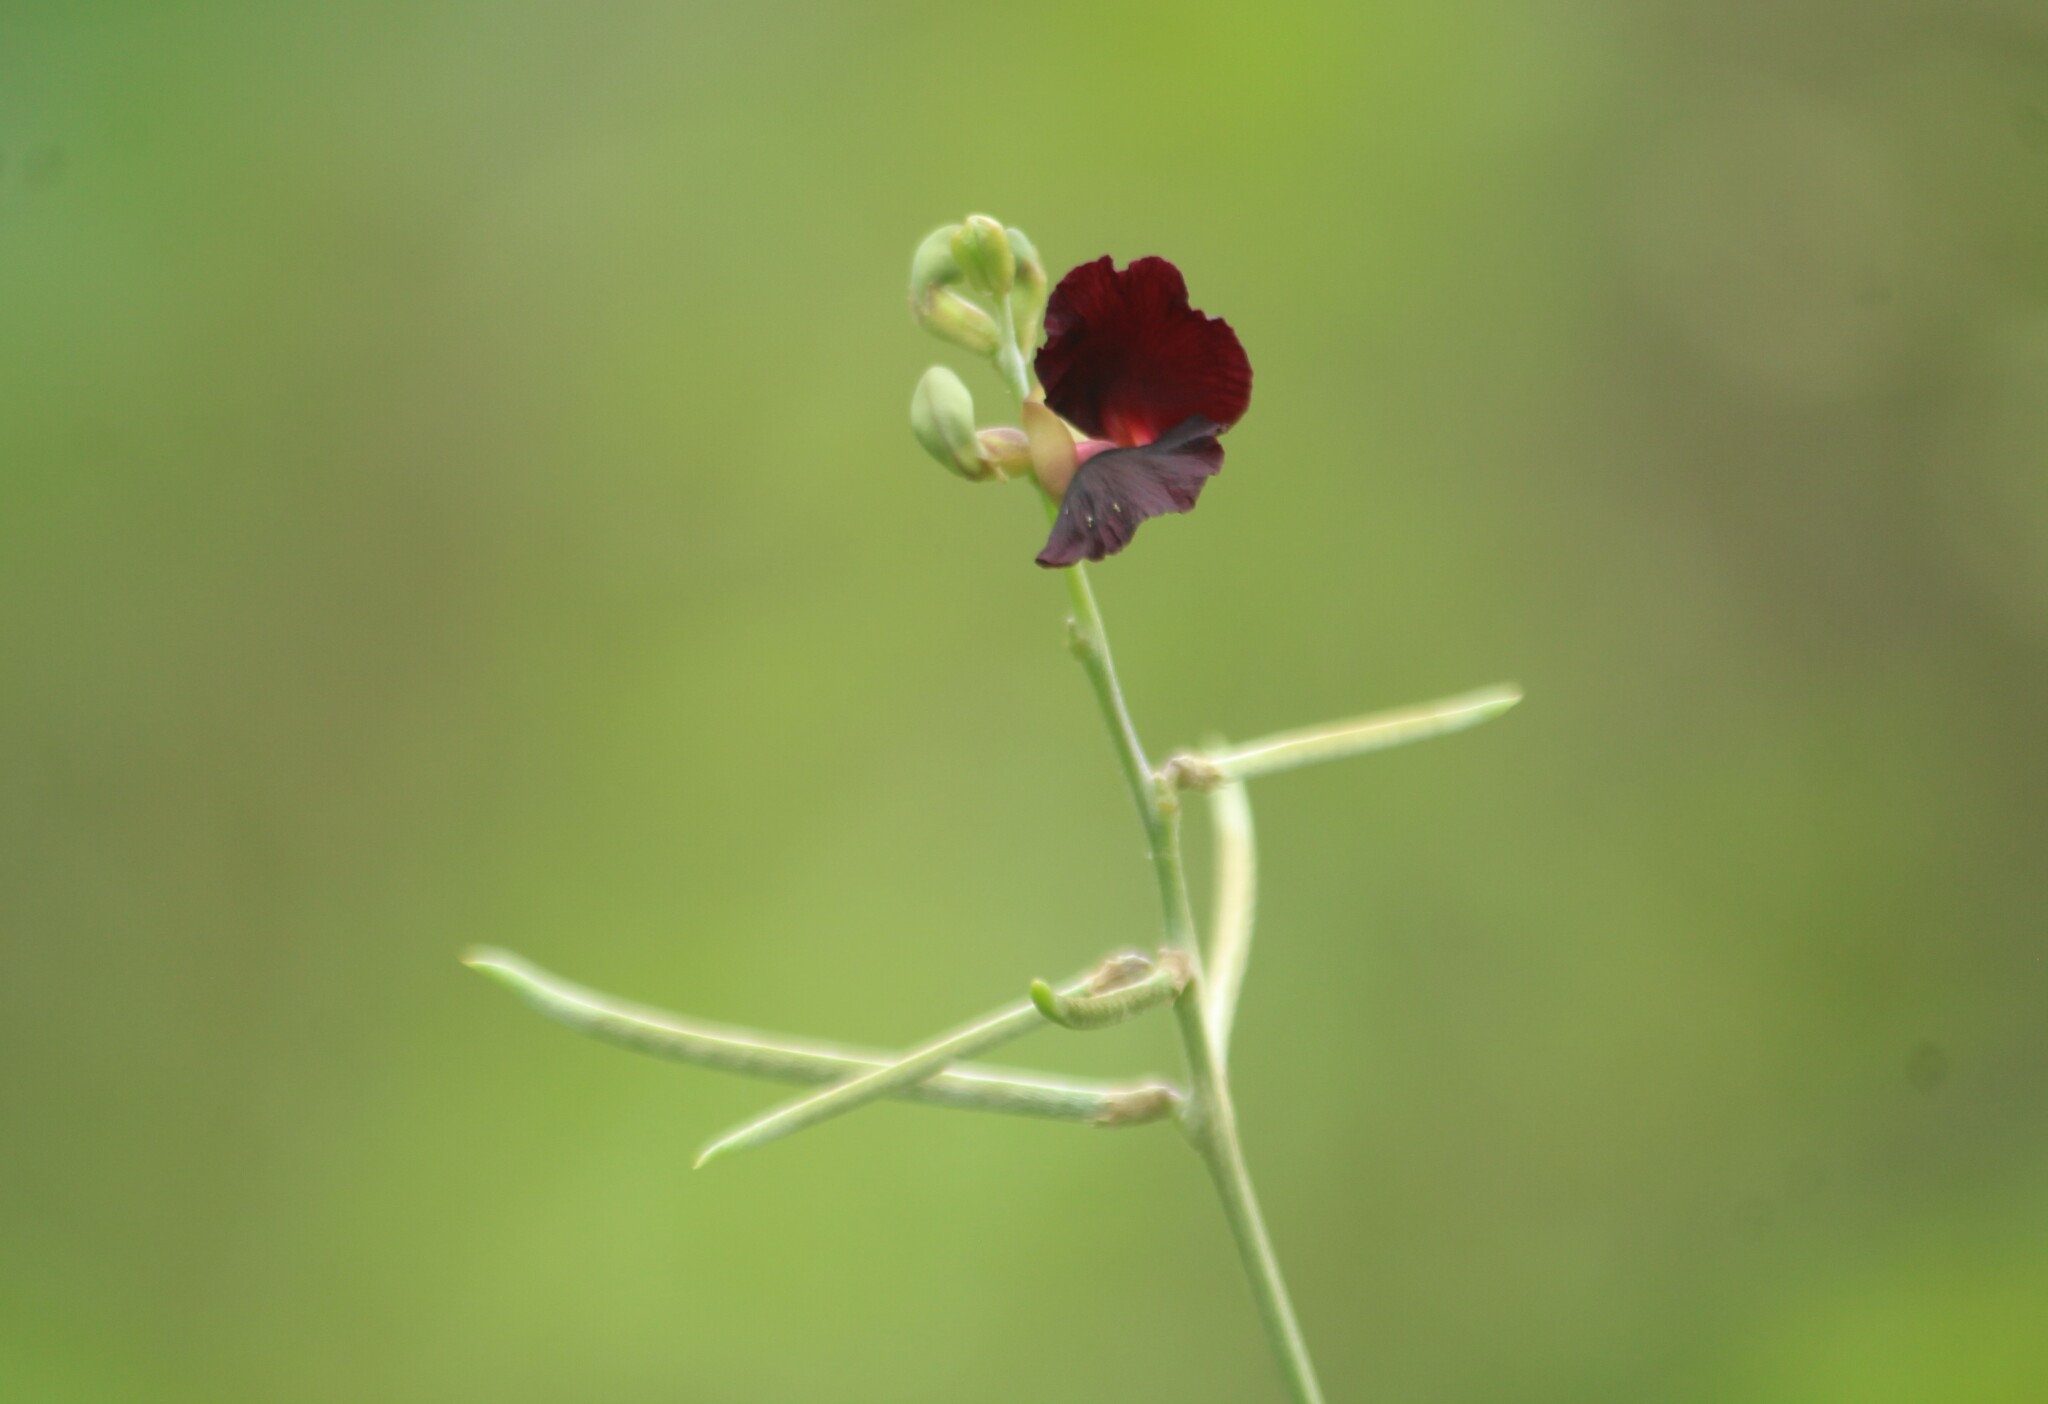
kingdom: Plantae
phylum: Tracheophyta
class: Magnoliopsida
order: Fabales
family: Fabaceae
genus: Macroptilium
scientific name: Macroptilium atropurpureum
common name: Purple bushbean
